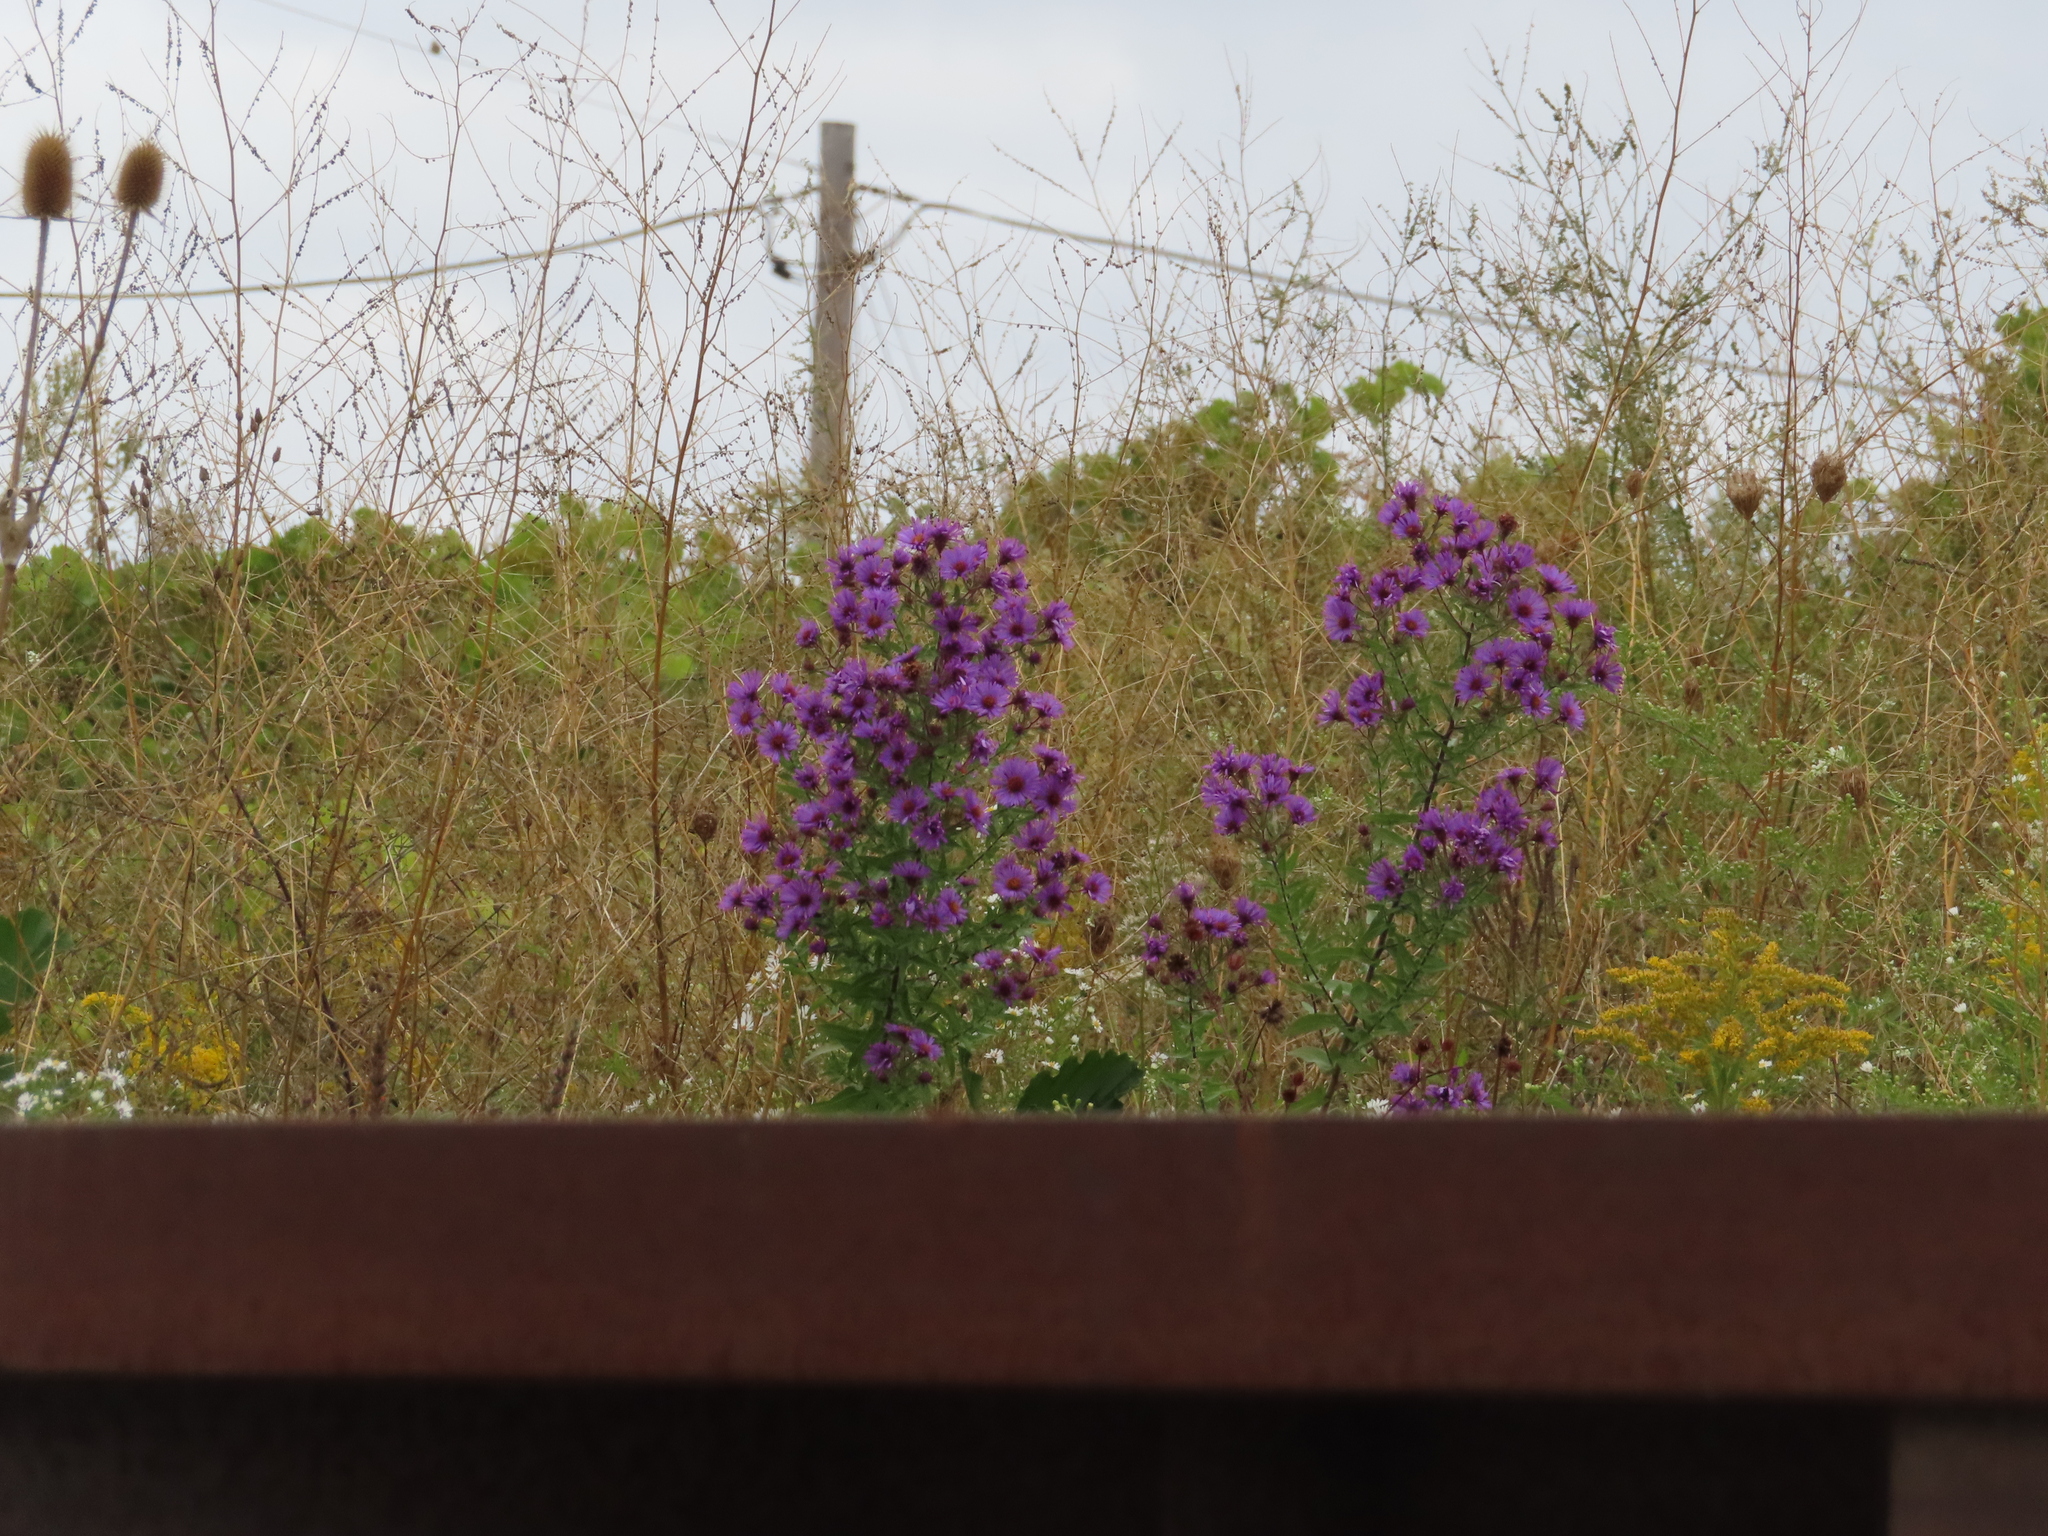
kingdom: Plantae
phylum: Tracheophyta
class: Magnoliopsida
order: Asterales
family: Asteraceae
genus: Symphyotrichum
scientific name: Symphyotrichum novae-angliae
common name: Michaelmas daisy
